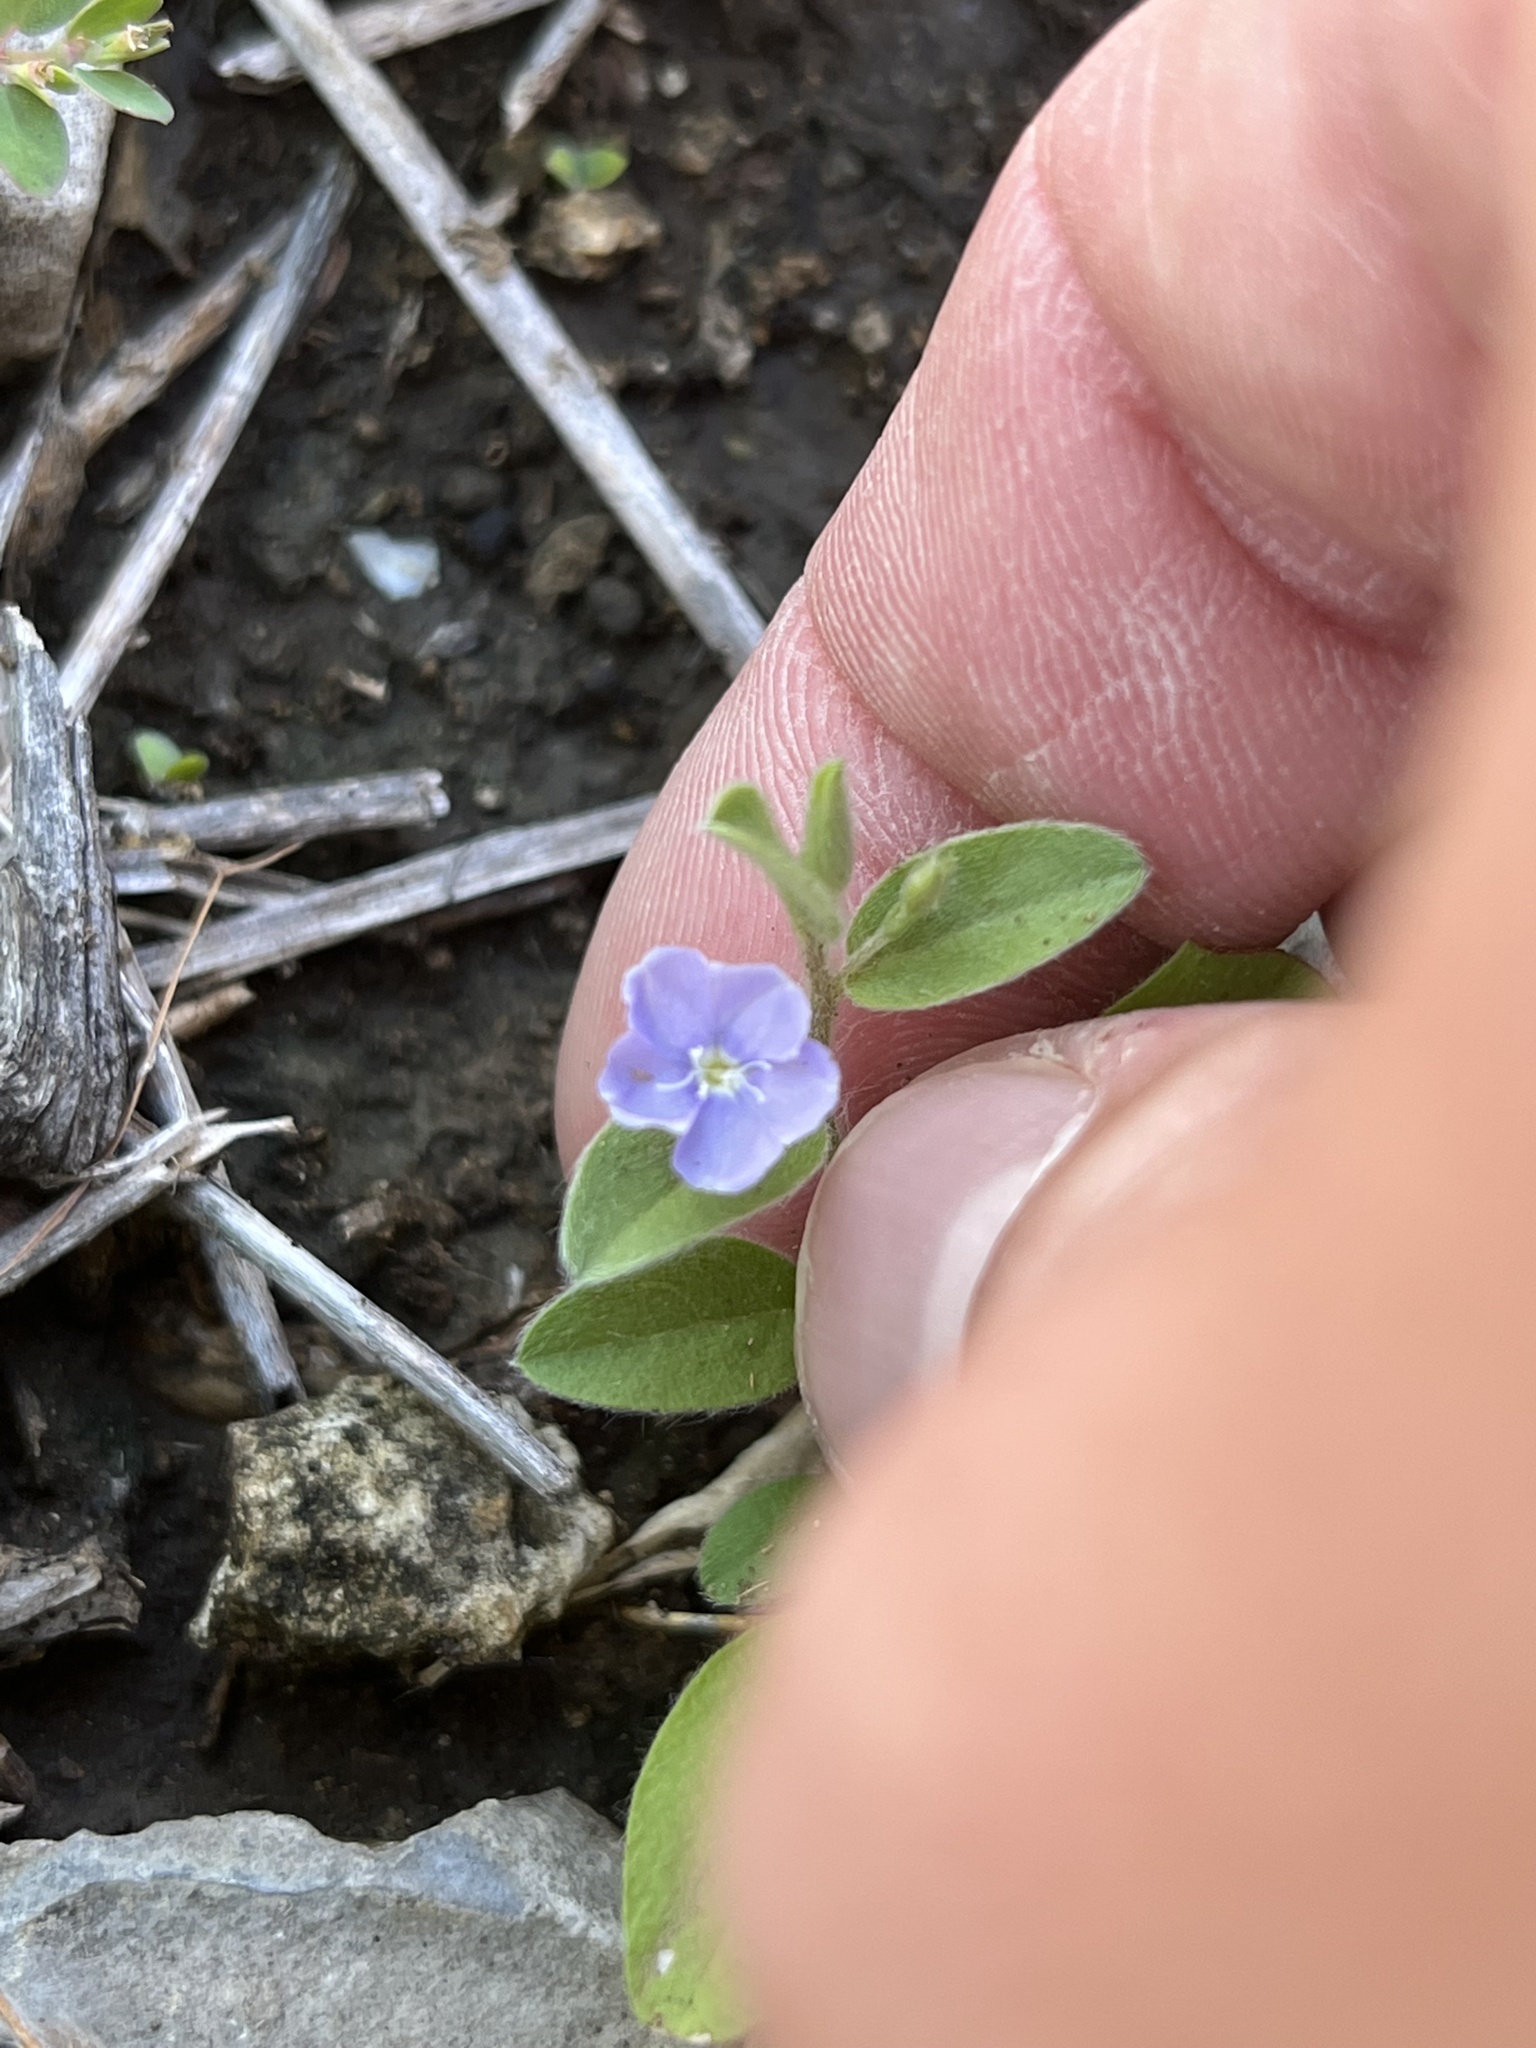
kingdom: Plantae
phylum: Tracheophyta
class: Magnoliopsida
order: Solanales
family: Convolvulaceae
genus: Evolvulus
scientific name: Evolvulus alsinoides
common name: Slender dwarf morning-glory
